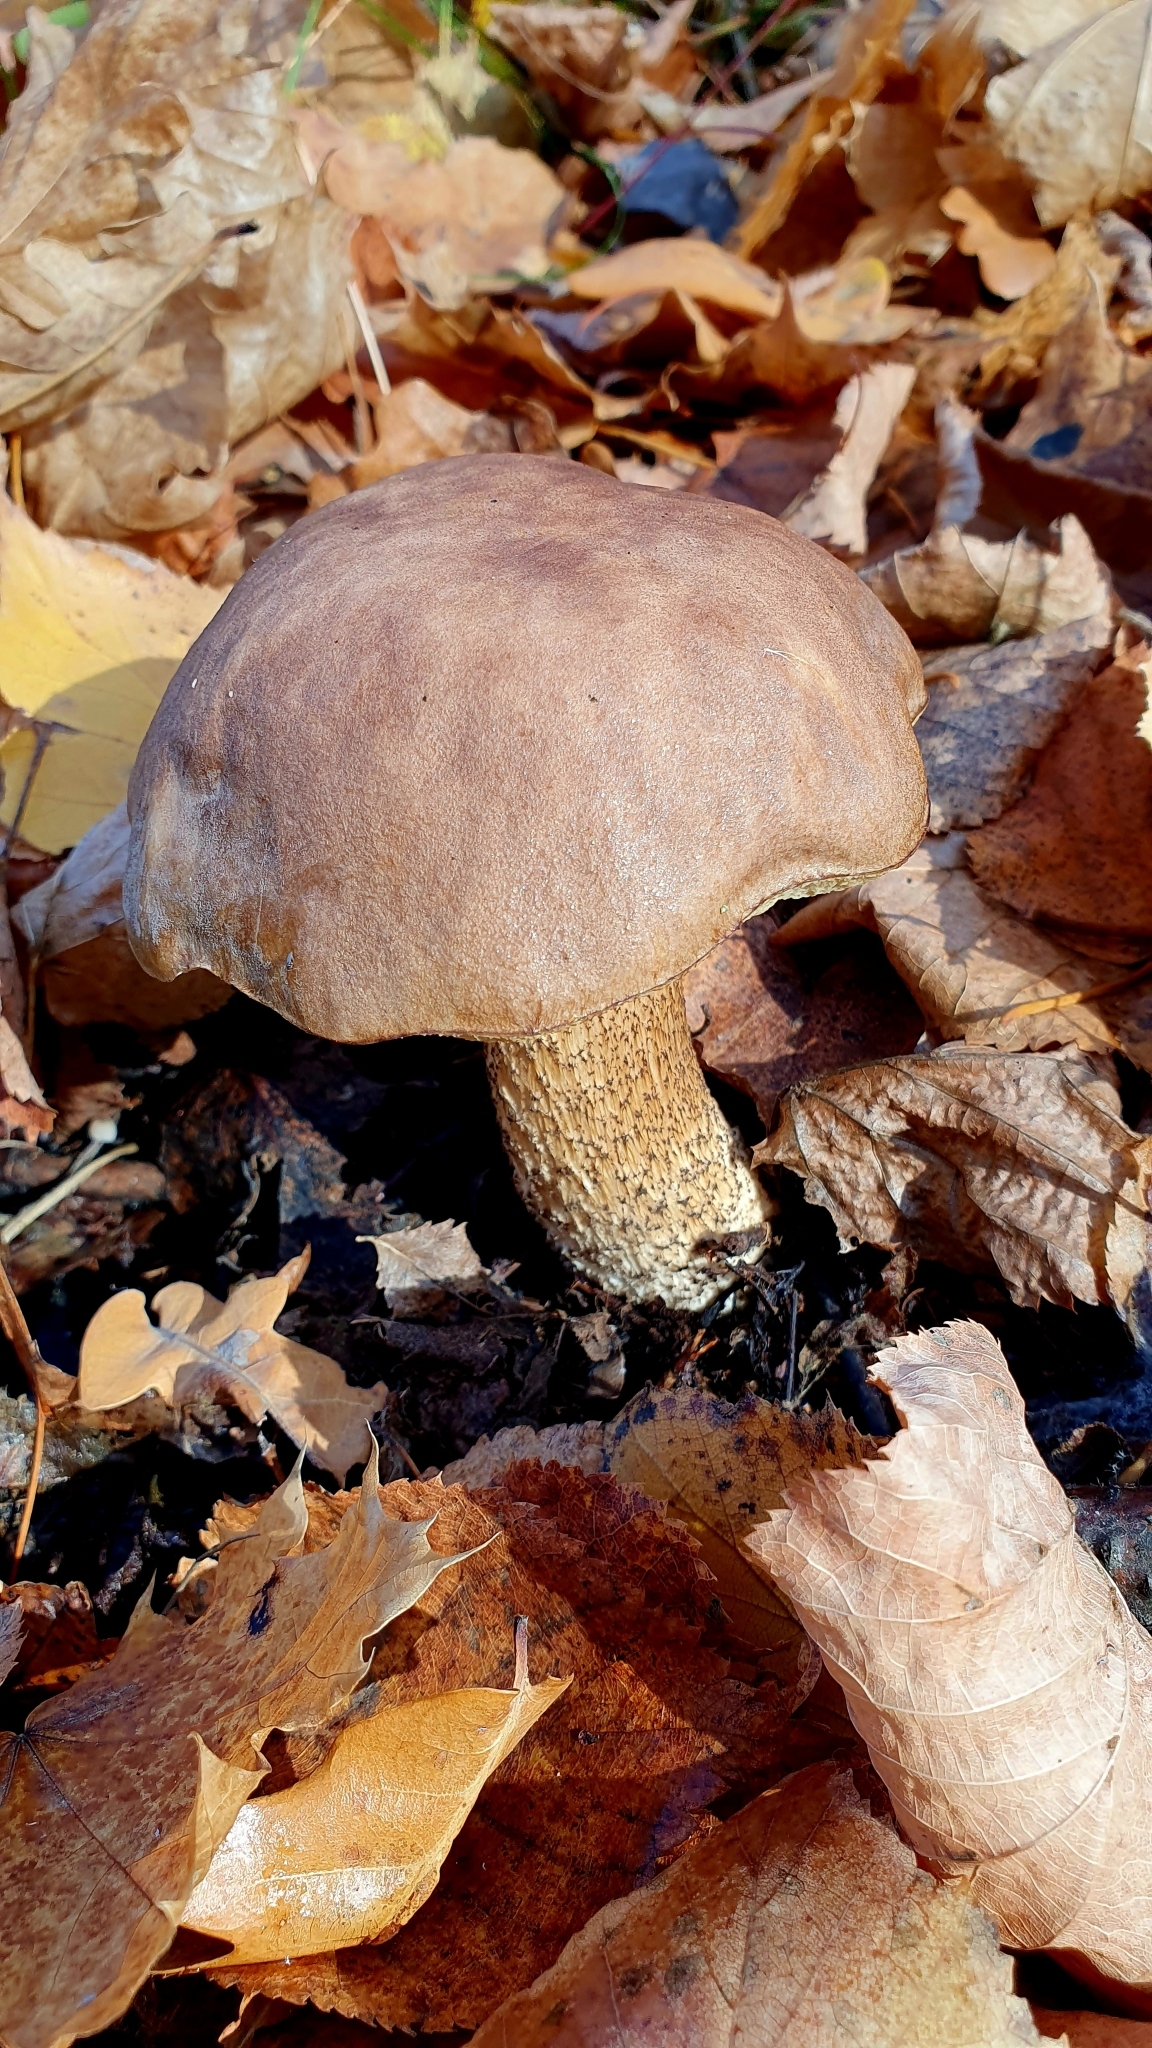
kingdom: Fungi
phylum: Basidiomycota
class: Agaricomycetes
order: Boletales
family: Boletaceae
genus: Leccinum
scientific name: Leccinum scabrum
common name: Blushing bolete
